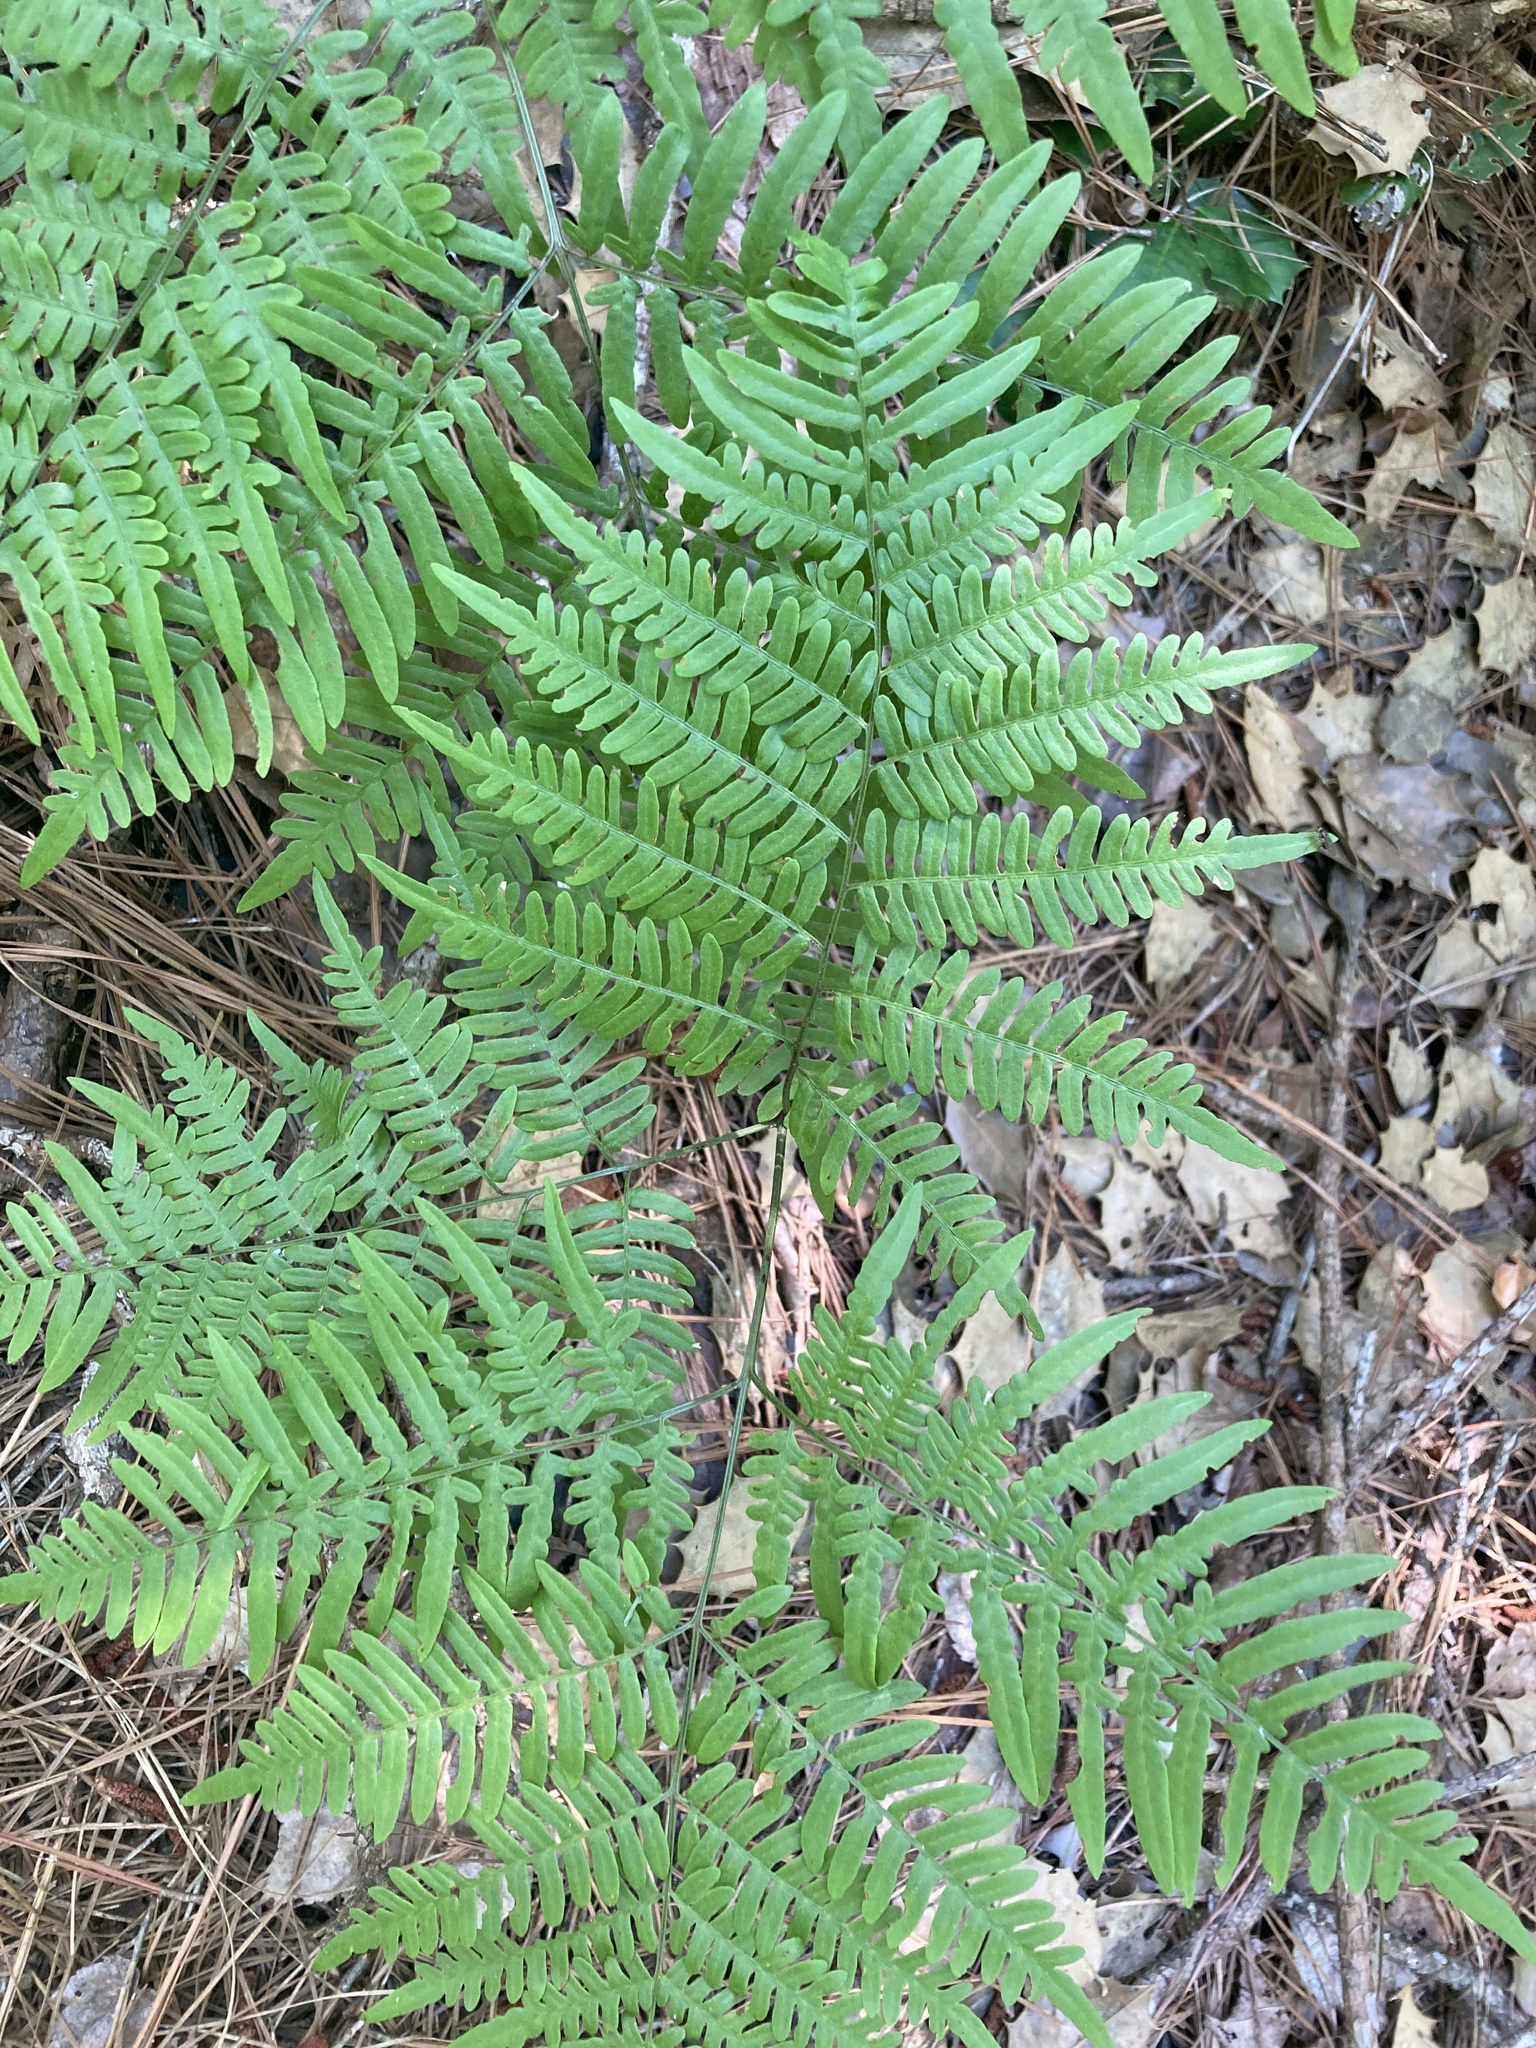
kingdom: Plantae
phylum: Tracheophyta
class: Polypodiopsida
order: Polypodiales
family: Dennstaedtiaceae
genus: Pteridium
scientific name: Pteridium aquilinum
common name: Bracken
